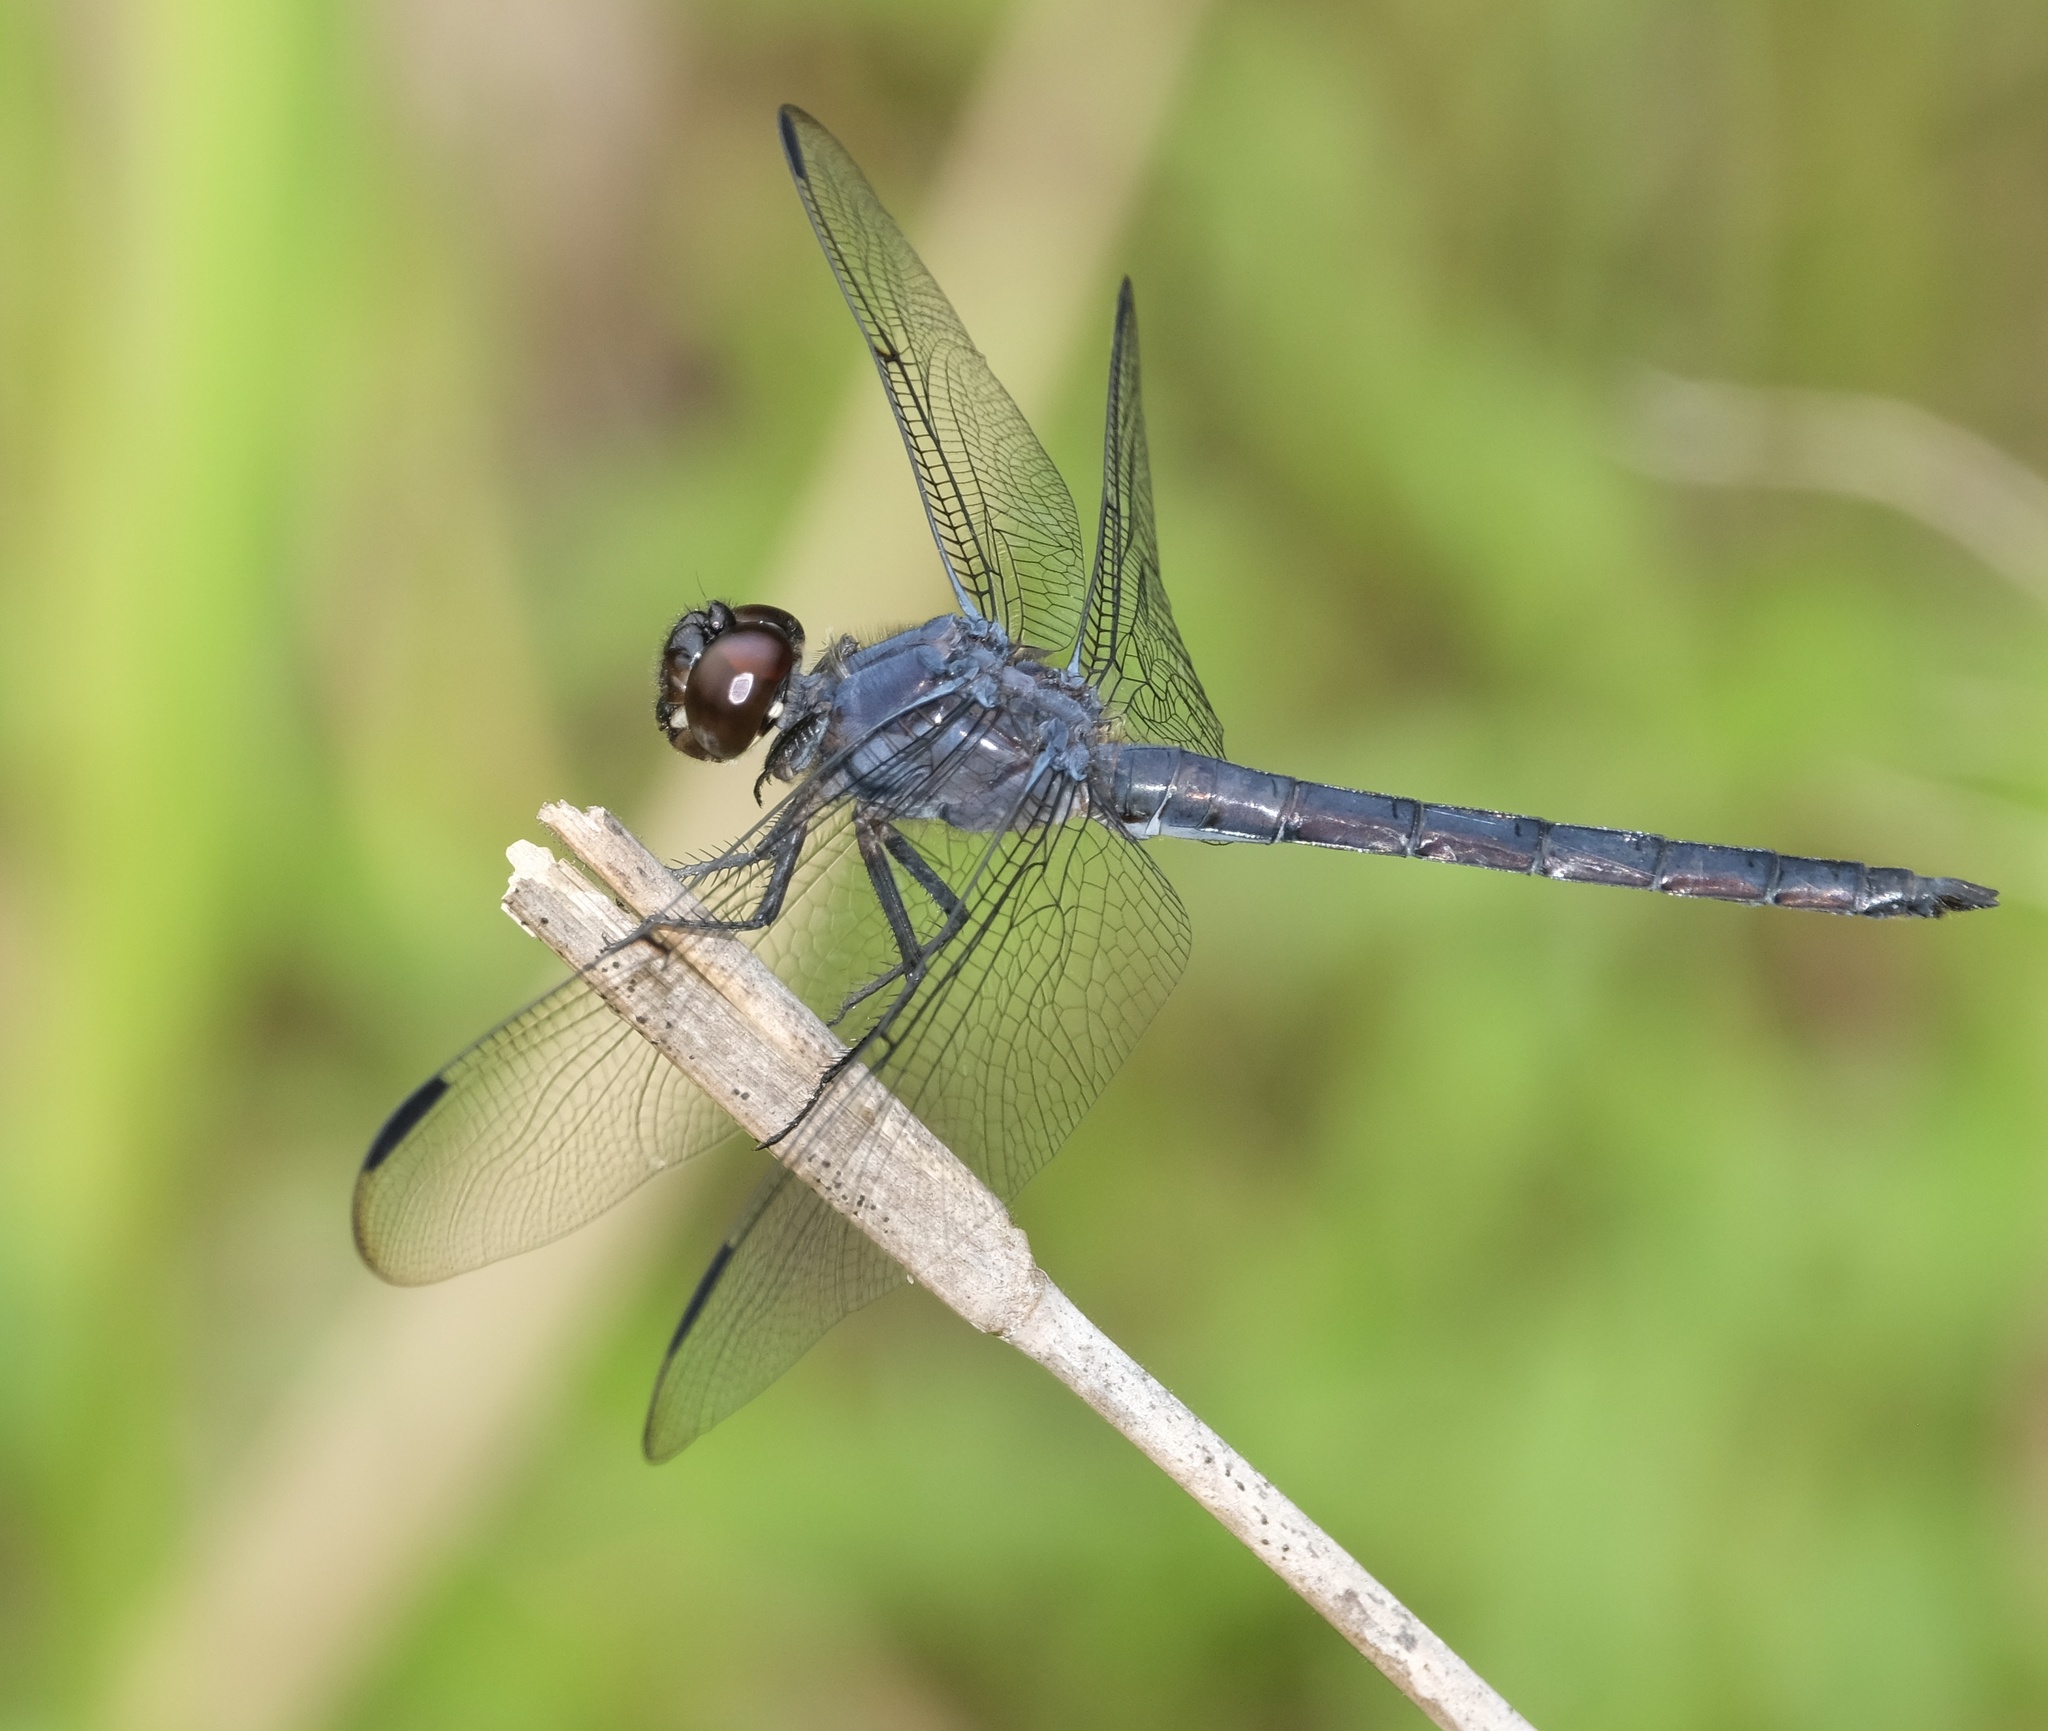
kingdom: Animalia
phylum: Arthropoda
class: Insecta
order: Odonata
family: Libellulidae
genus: Libellula
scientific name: Libellula incesta
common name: Slaty skimmer
